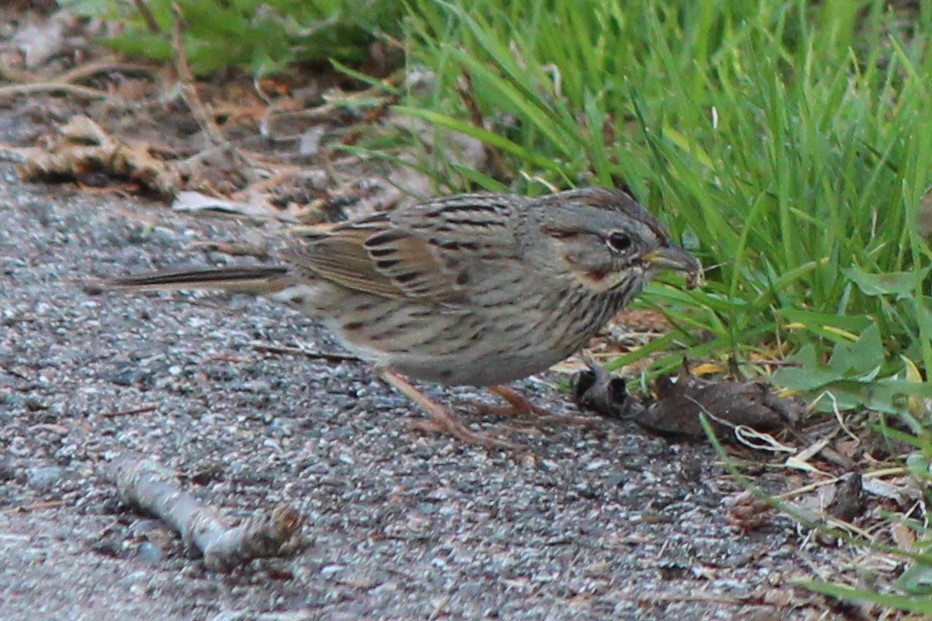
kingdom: Animalia
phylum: Chordata
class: Aves
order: Passeriformes
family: Passerellidae
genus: Melospiza
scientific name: Melospiza lincolnii
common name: Lincoln's sparrow
